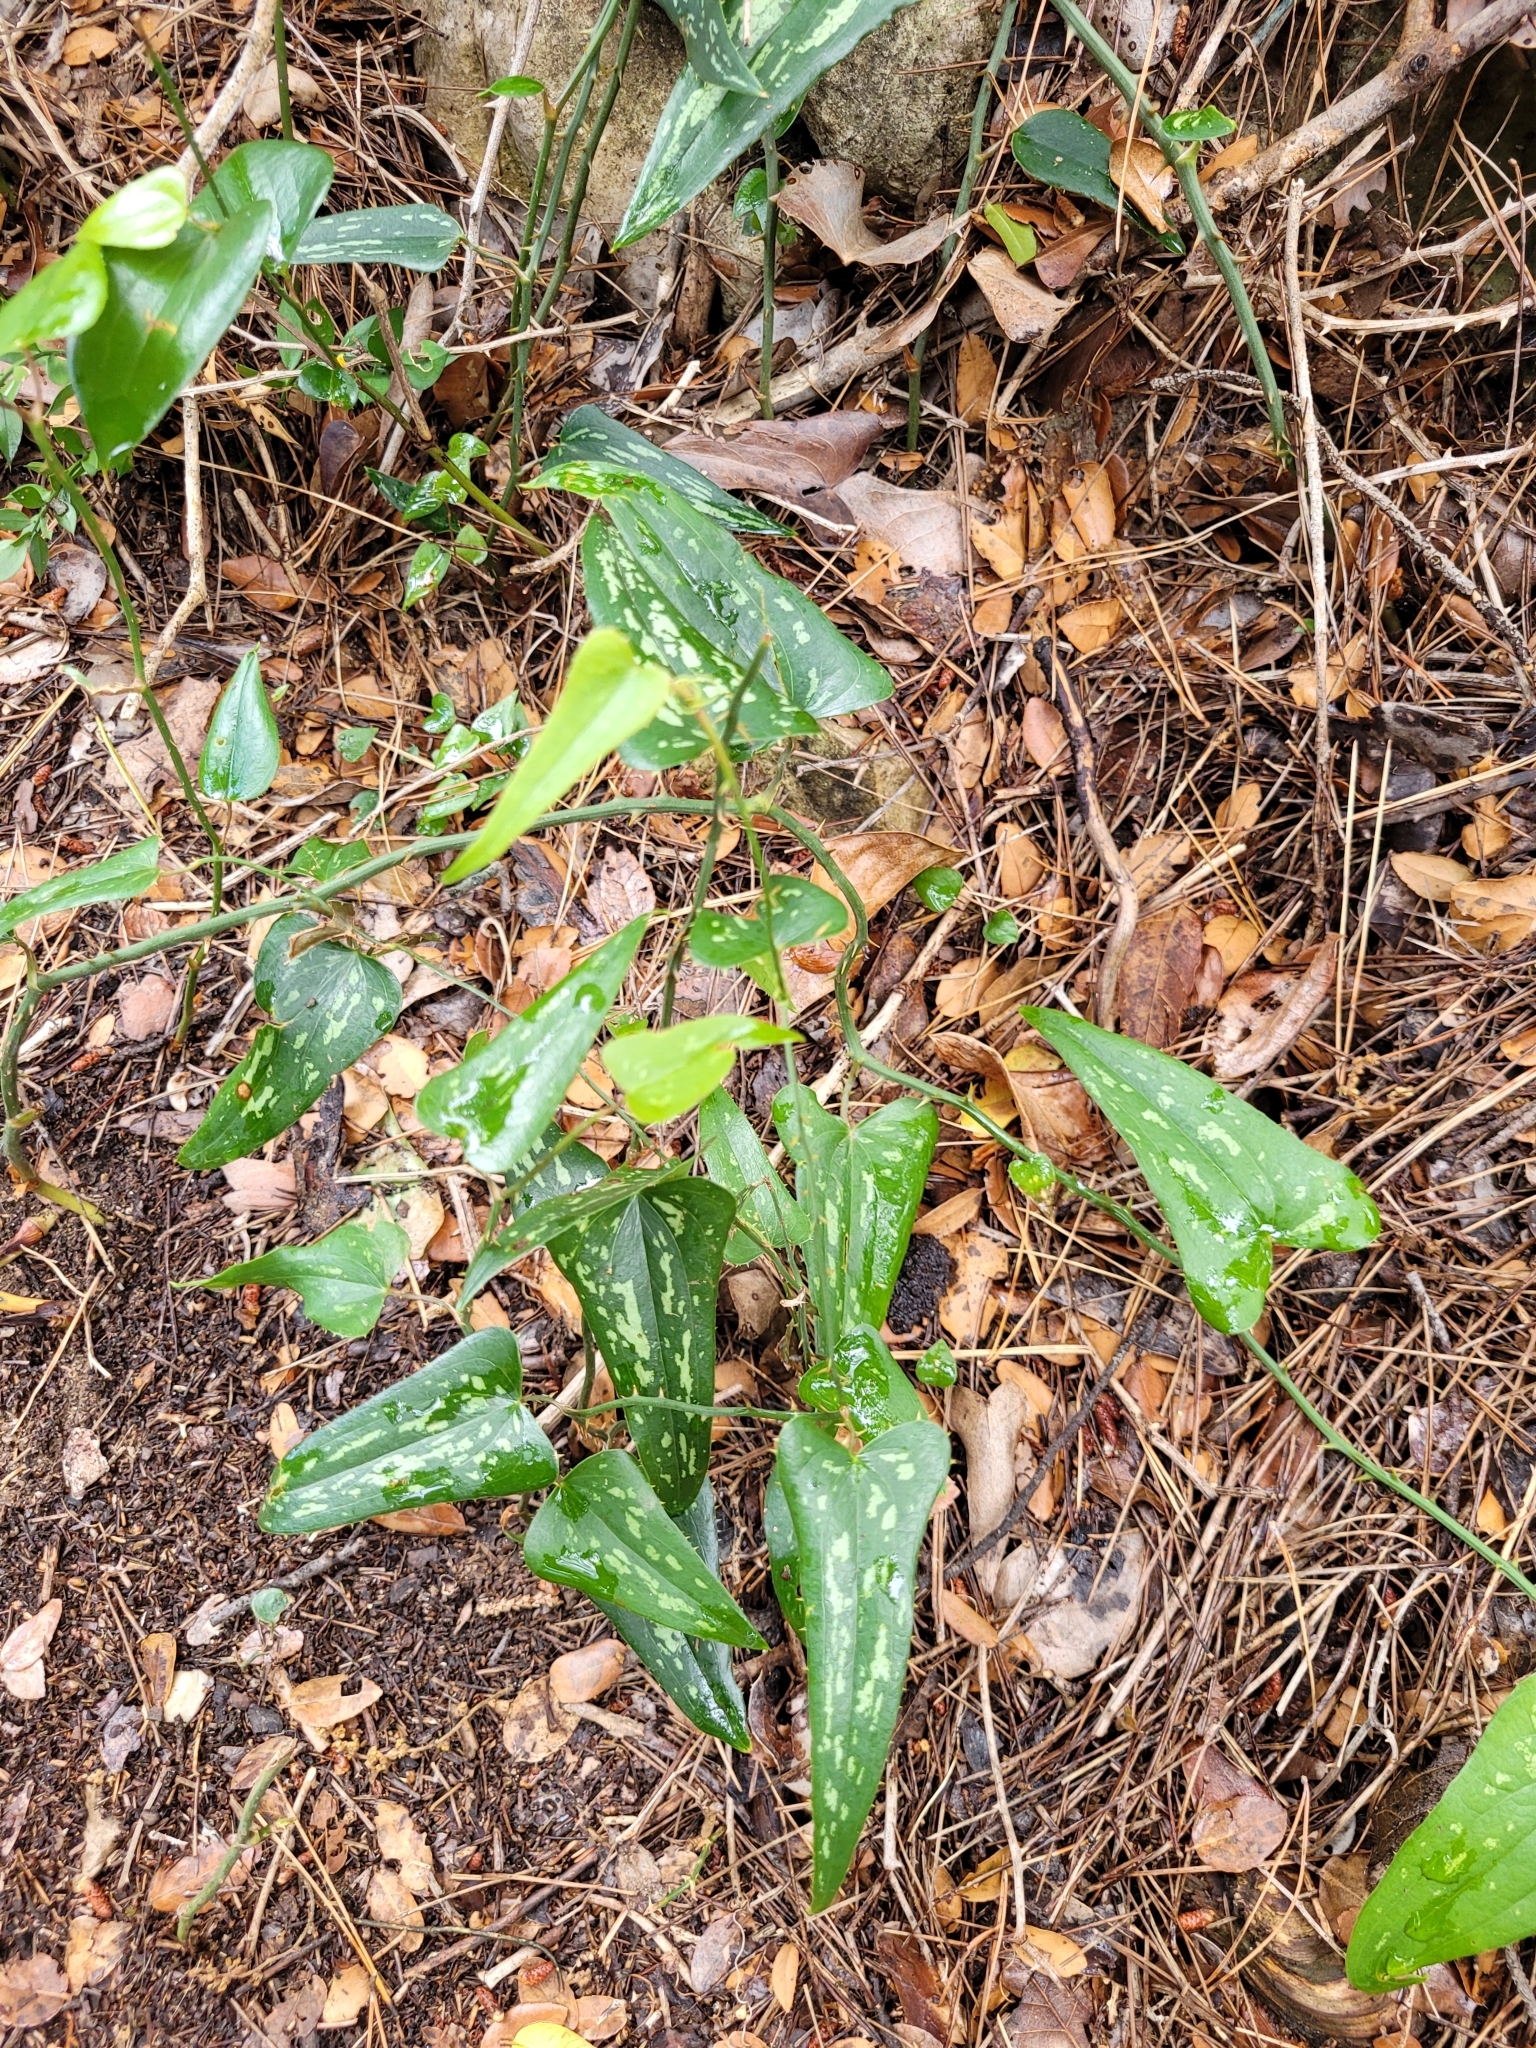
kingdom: Plantae
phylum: Tracheophyta
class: Liliopsida
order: Liliales
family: Smilacaceae
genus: Smilax
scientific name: Smilax aspera
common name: Common smilax
